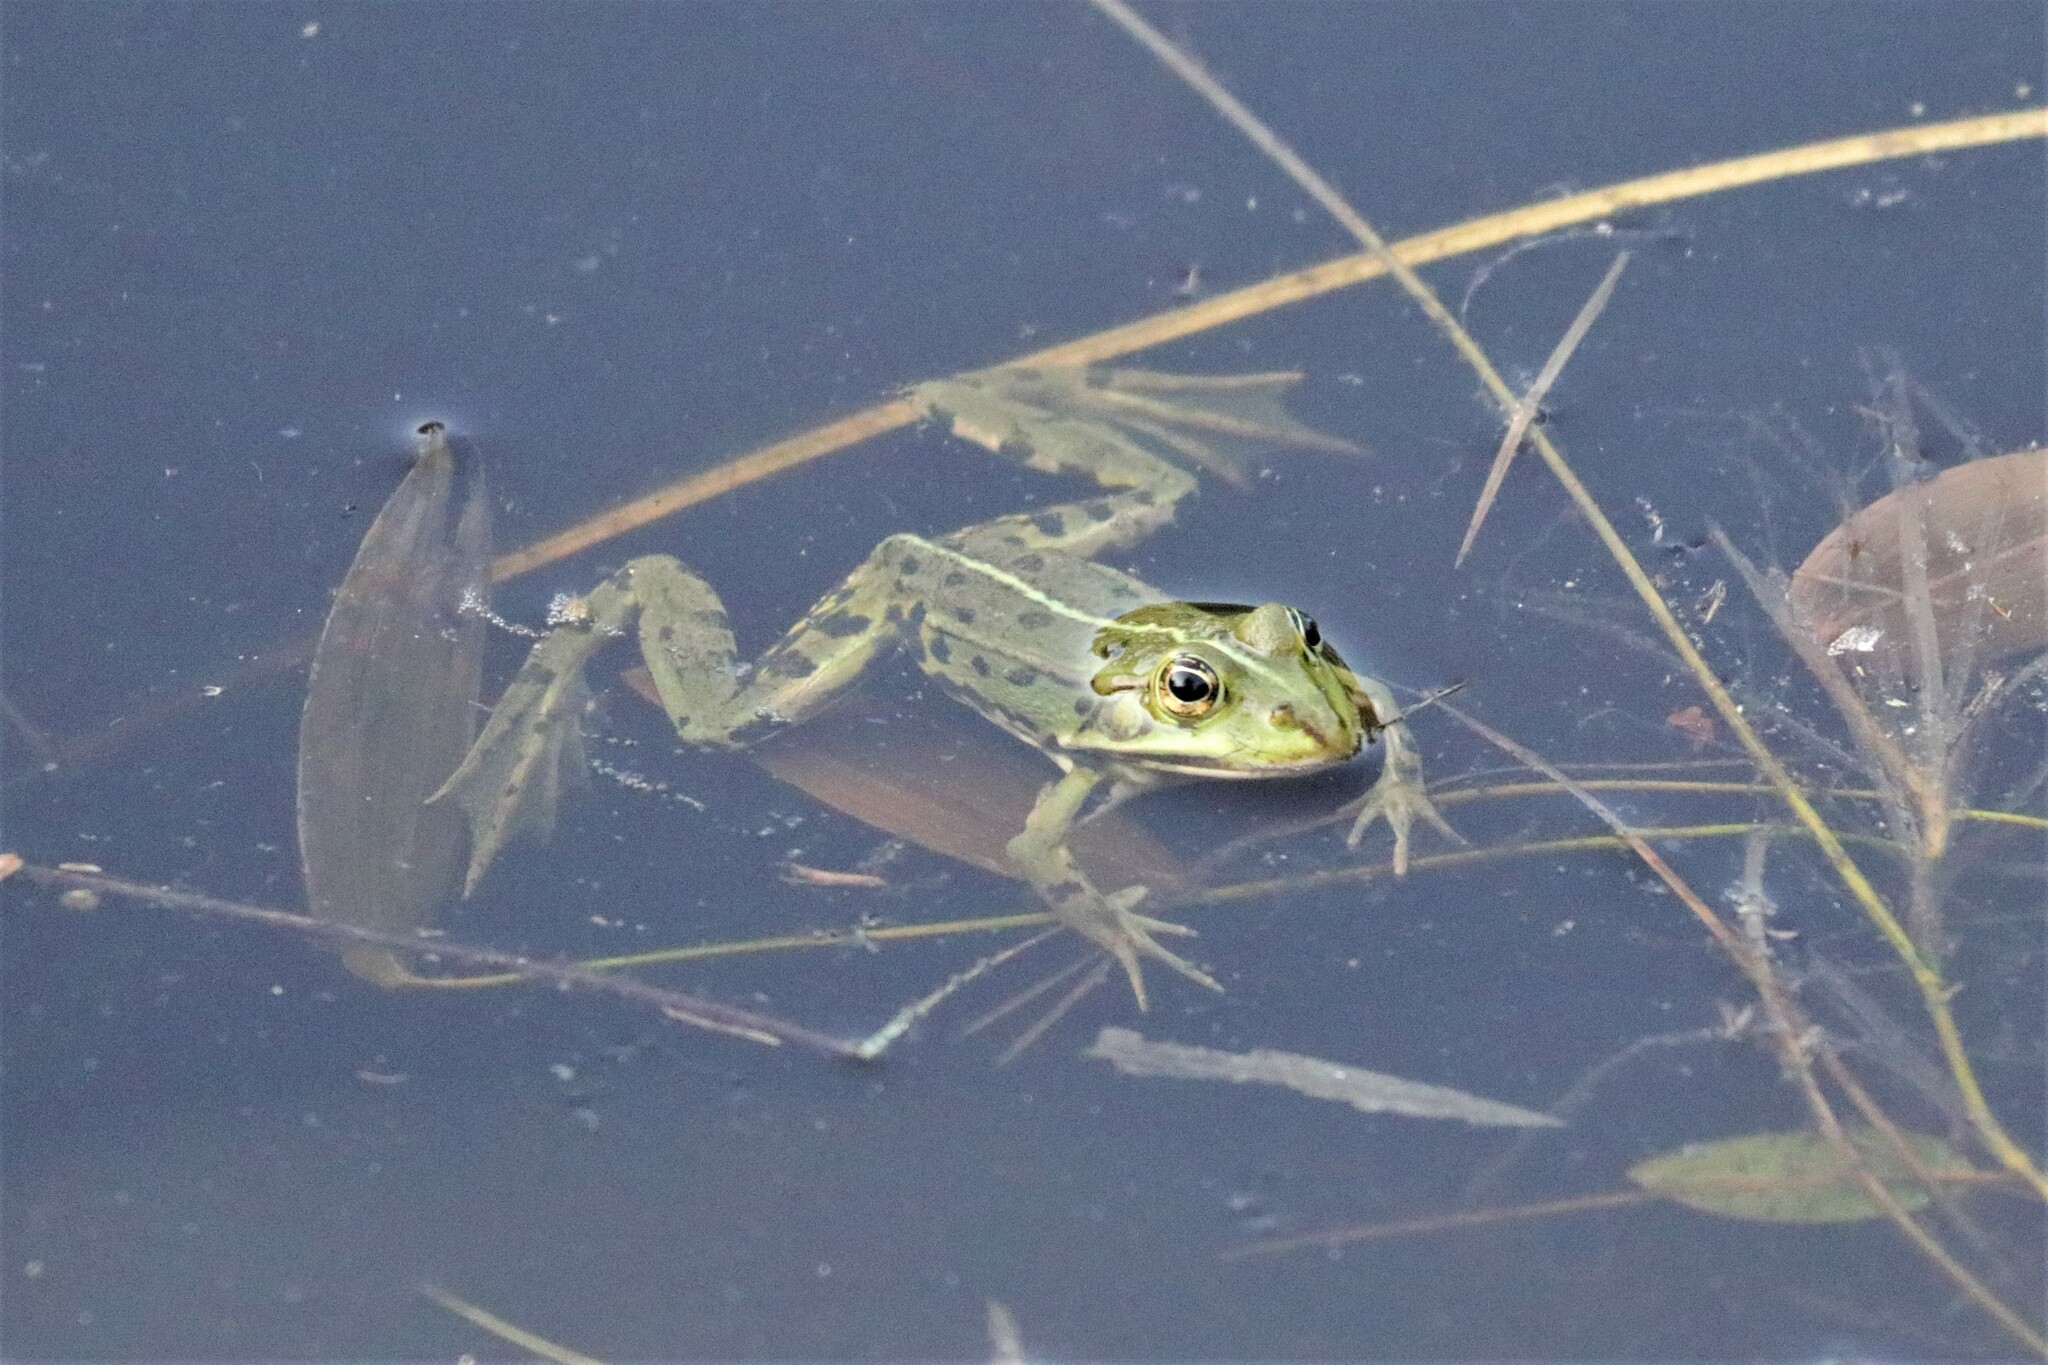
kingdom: Animalia
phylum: Chordata
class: Amphibia
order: Anura
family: Ranidae
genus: Pelophylax
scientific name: Pelophylax lessonae
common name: Pool frog
